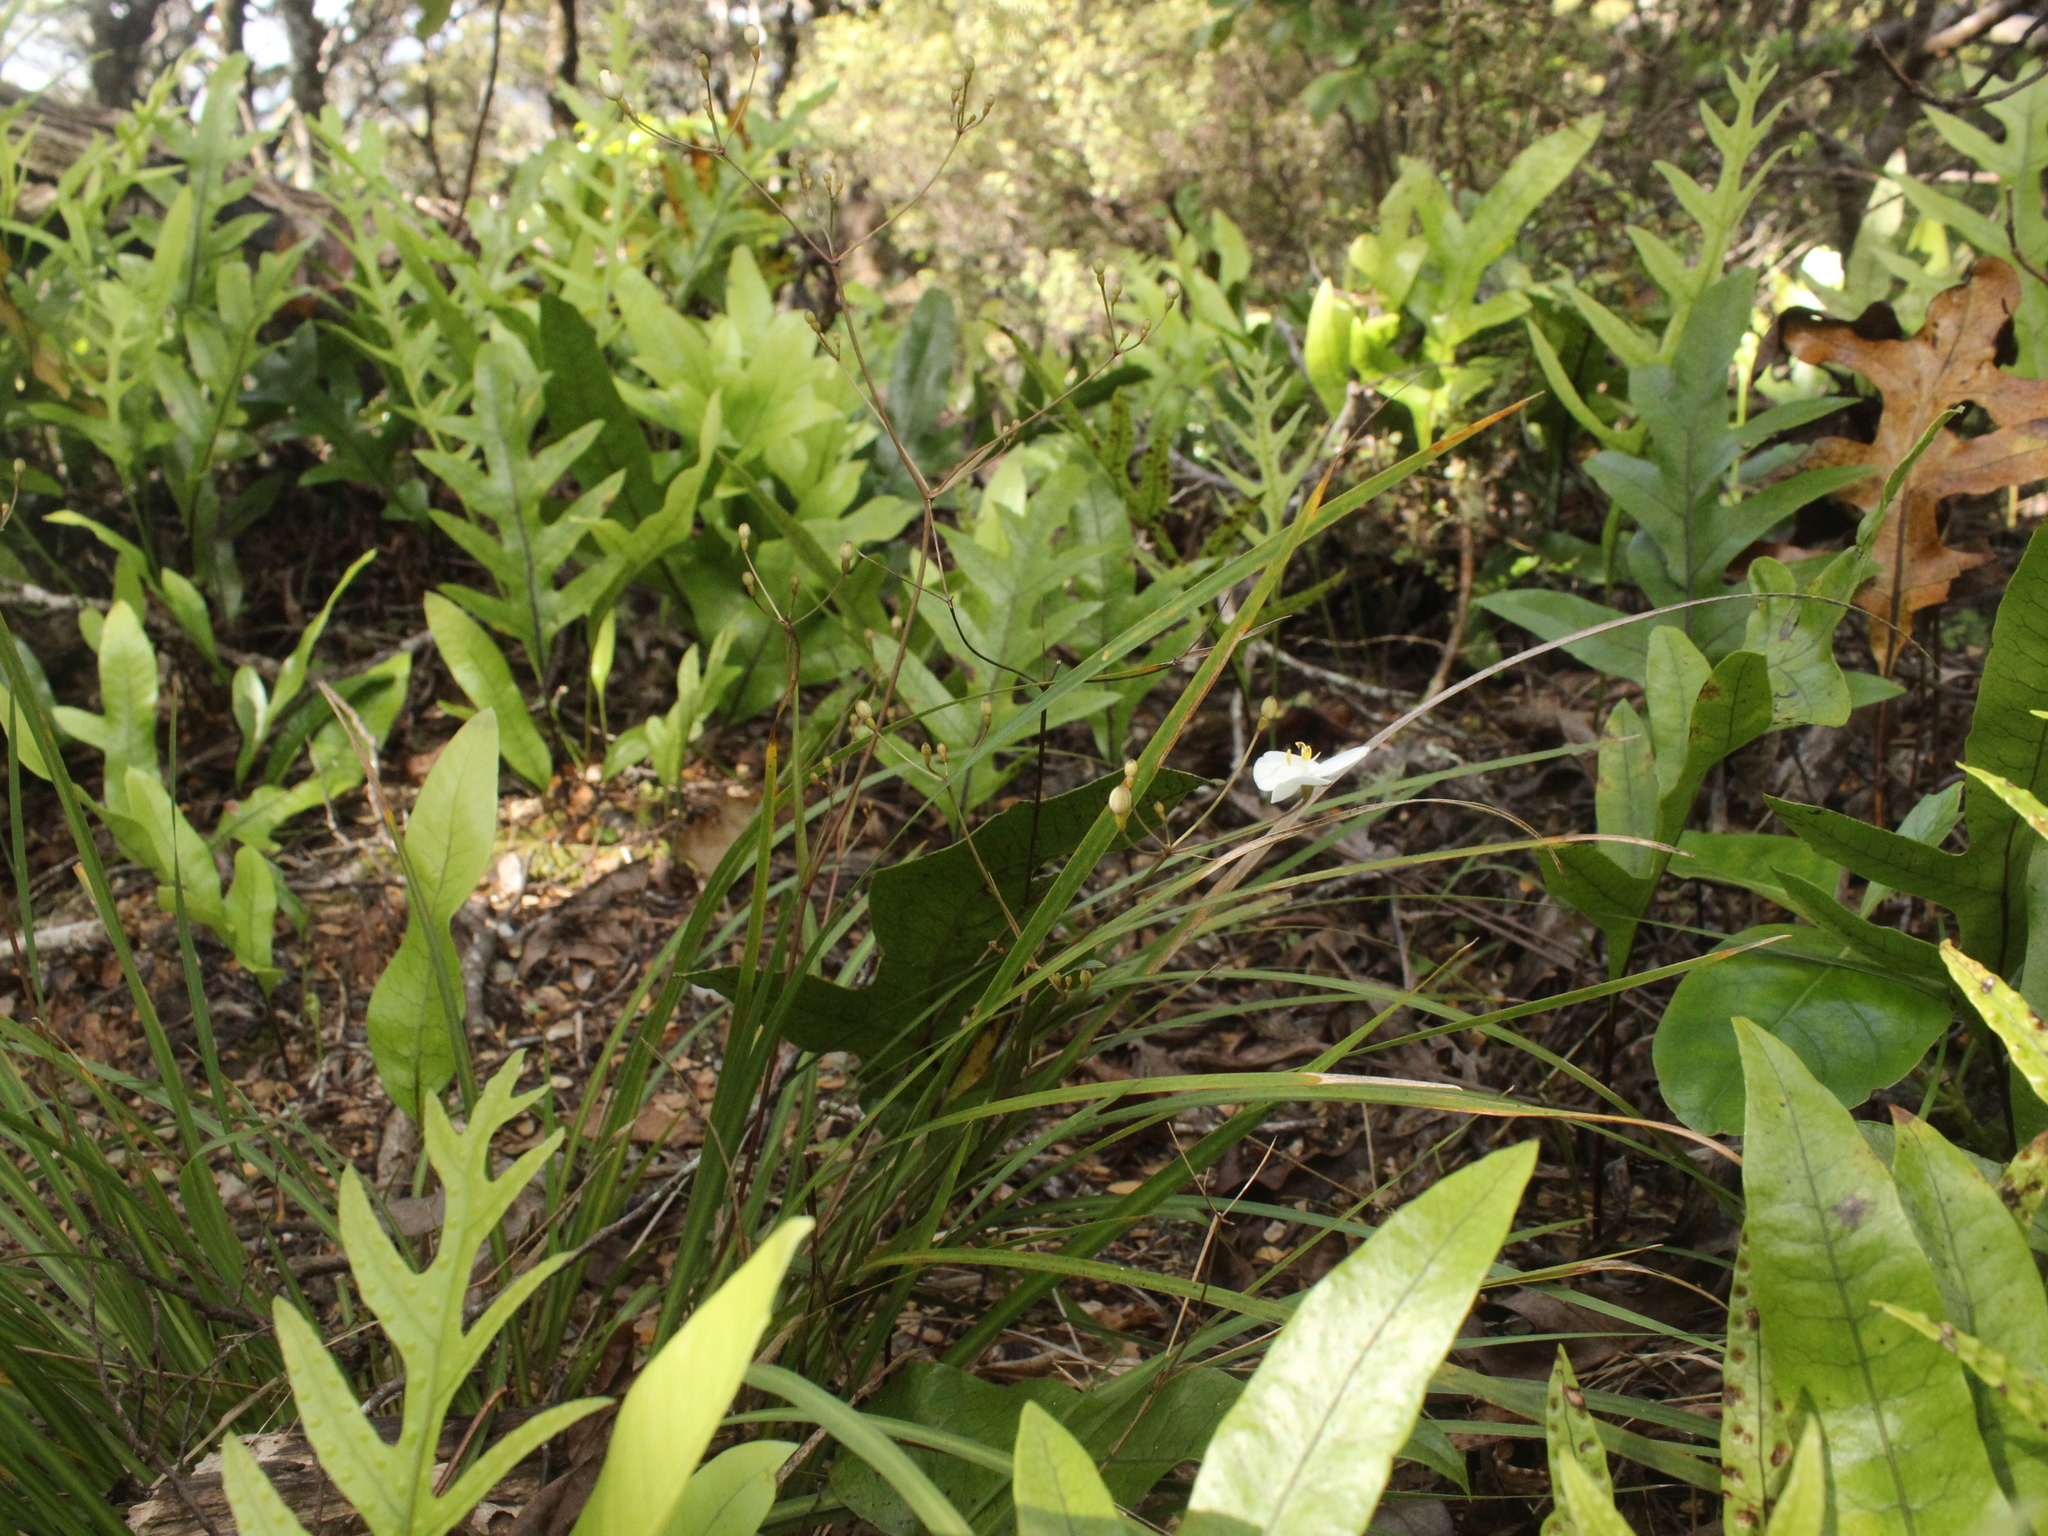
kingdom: Plantae
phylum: Tracheophyta
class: Liliopsida
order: Asparagales
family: Iridaceae
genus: Libertia
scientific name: Libertia edgariae
